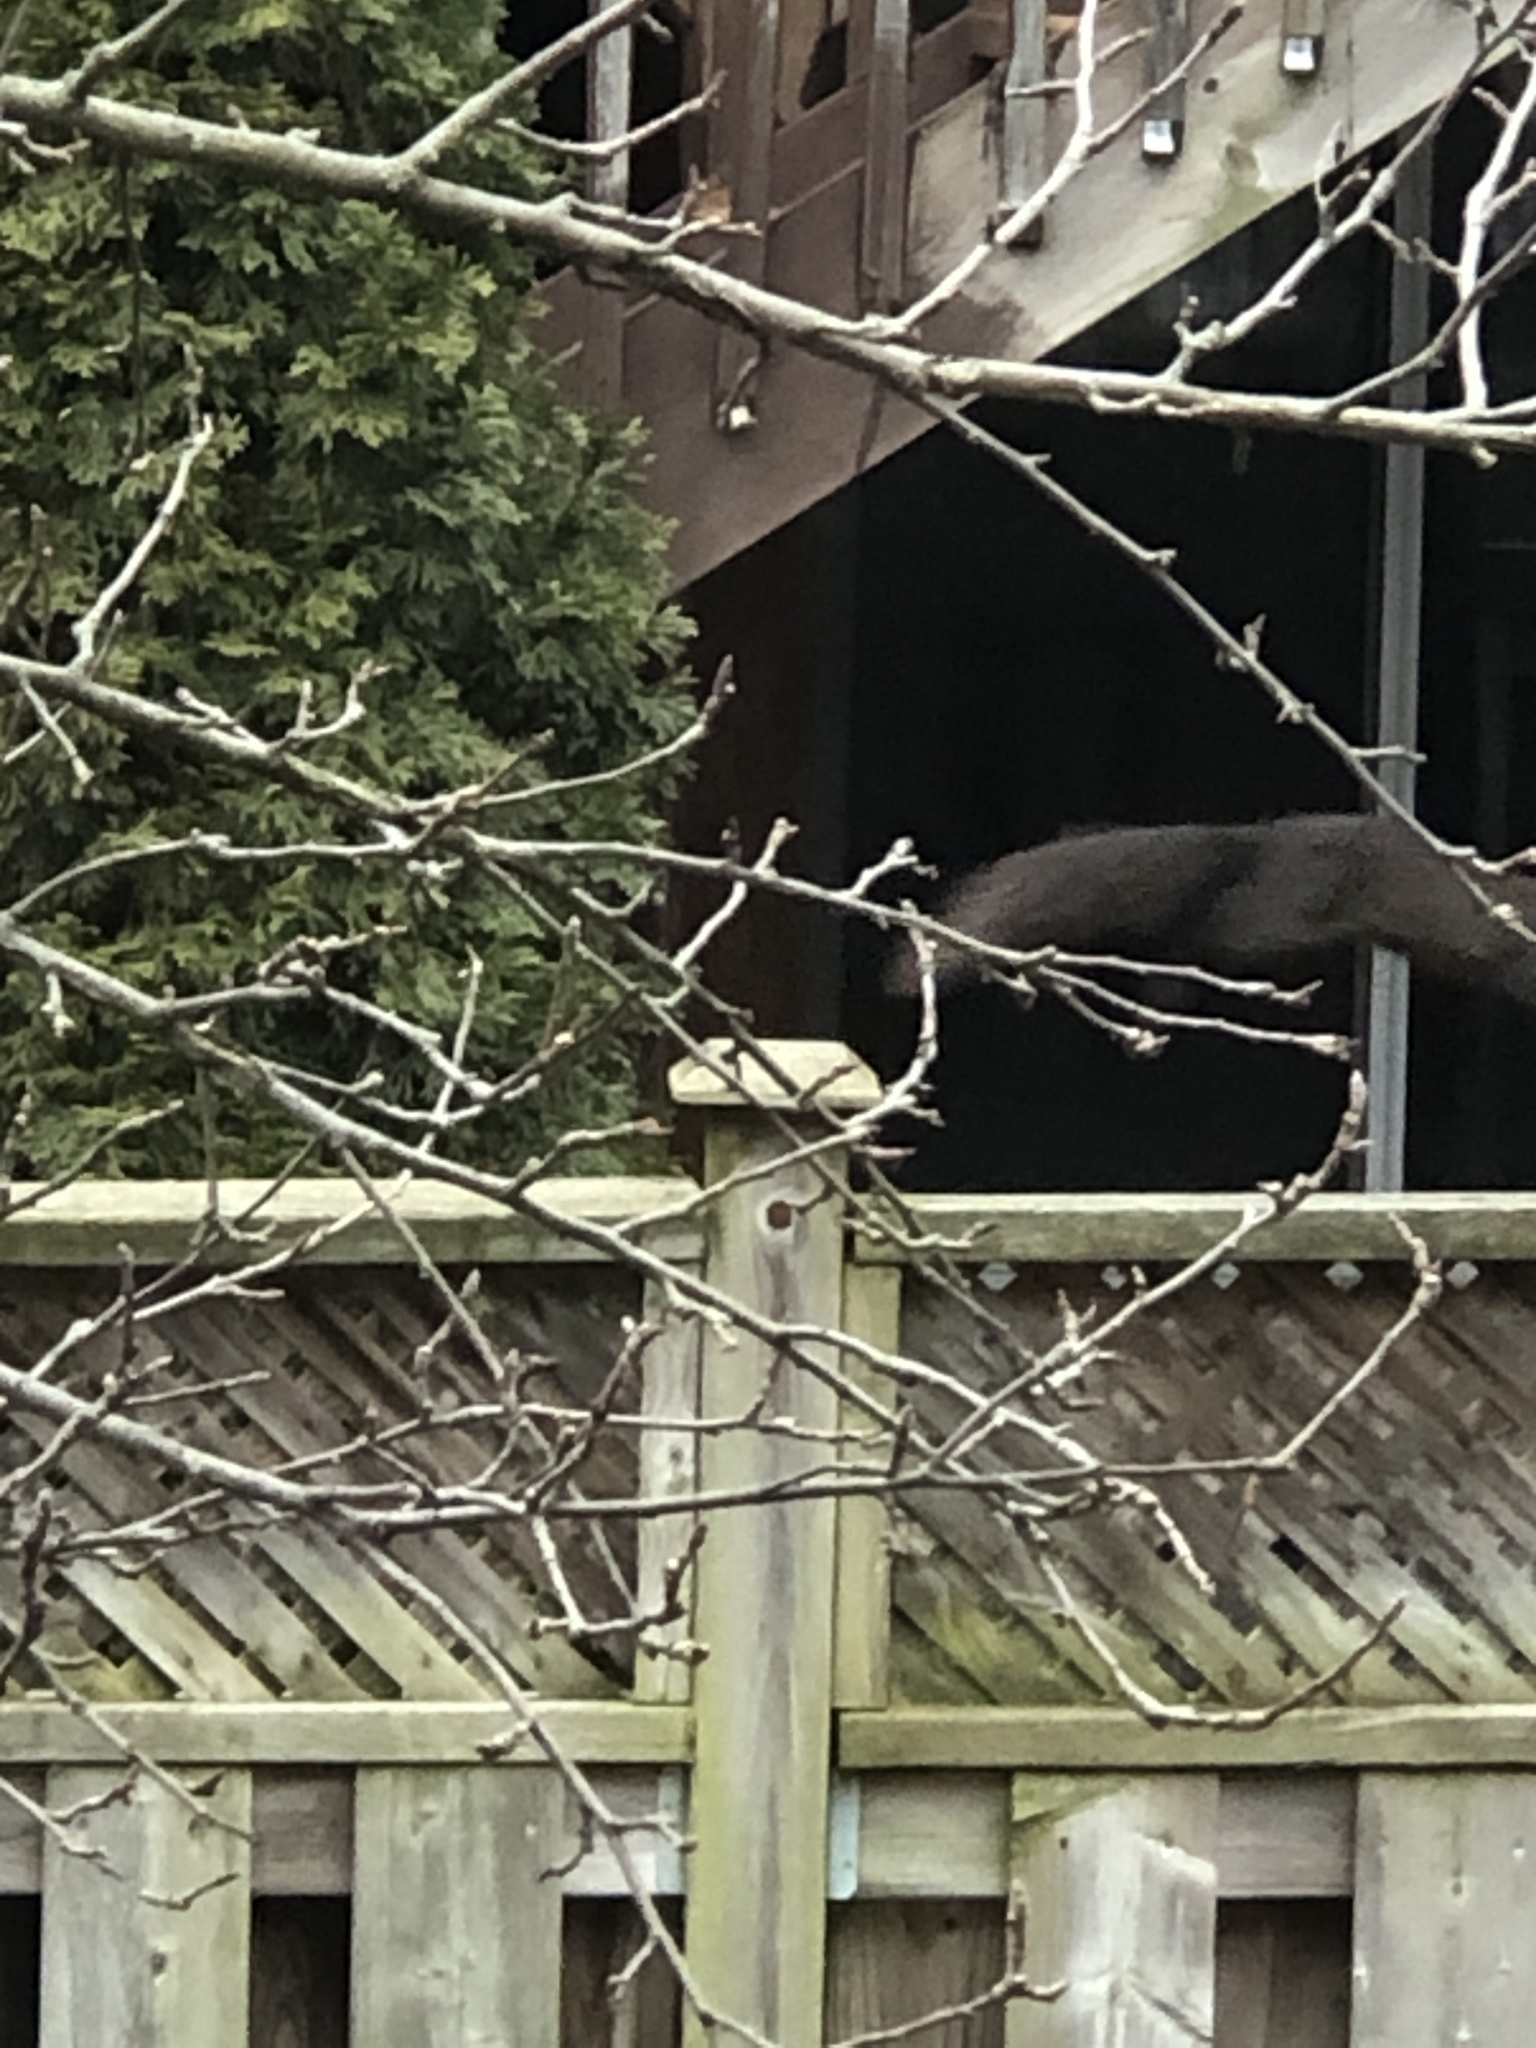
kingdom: Animalia
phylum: Chordata
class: Mammalia
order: Rodentia
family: Sciuridae
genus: Sciurus
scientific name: Sciurus carolinensis
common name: Eastern gray squirrel
